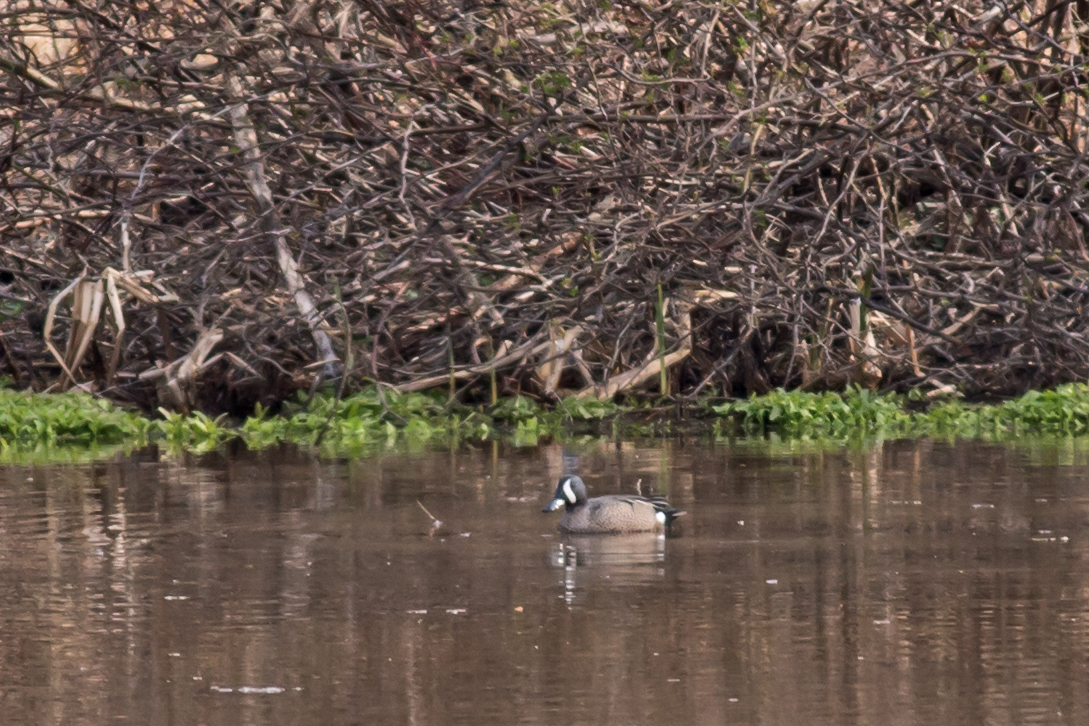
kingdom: Animalia
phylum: Chordata
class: Aves
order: Anseriformes
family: Anatidae
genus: Spatula
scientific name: Spatula discors
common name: Blue-winged teal
